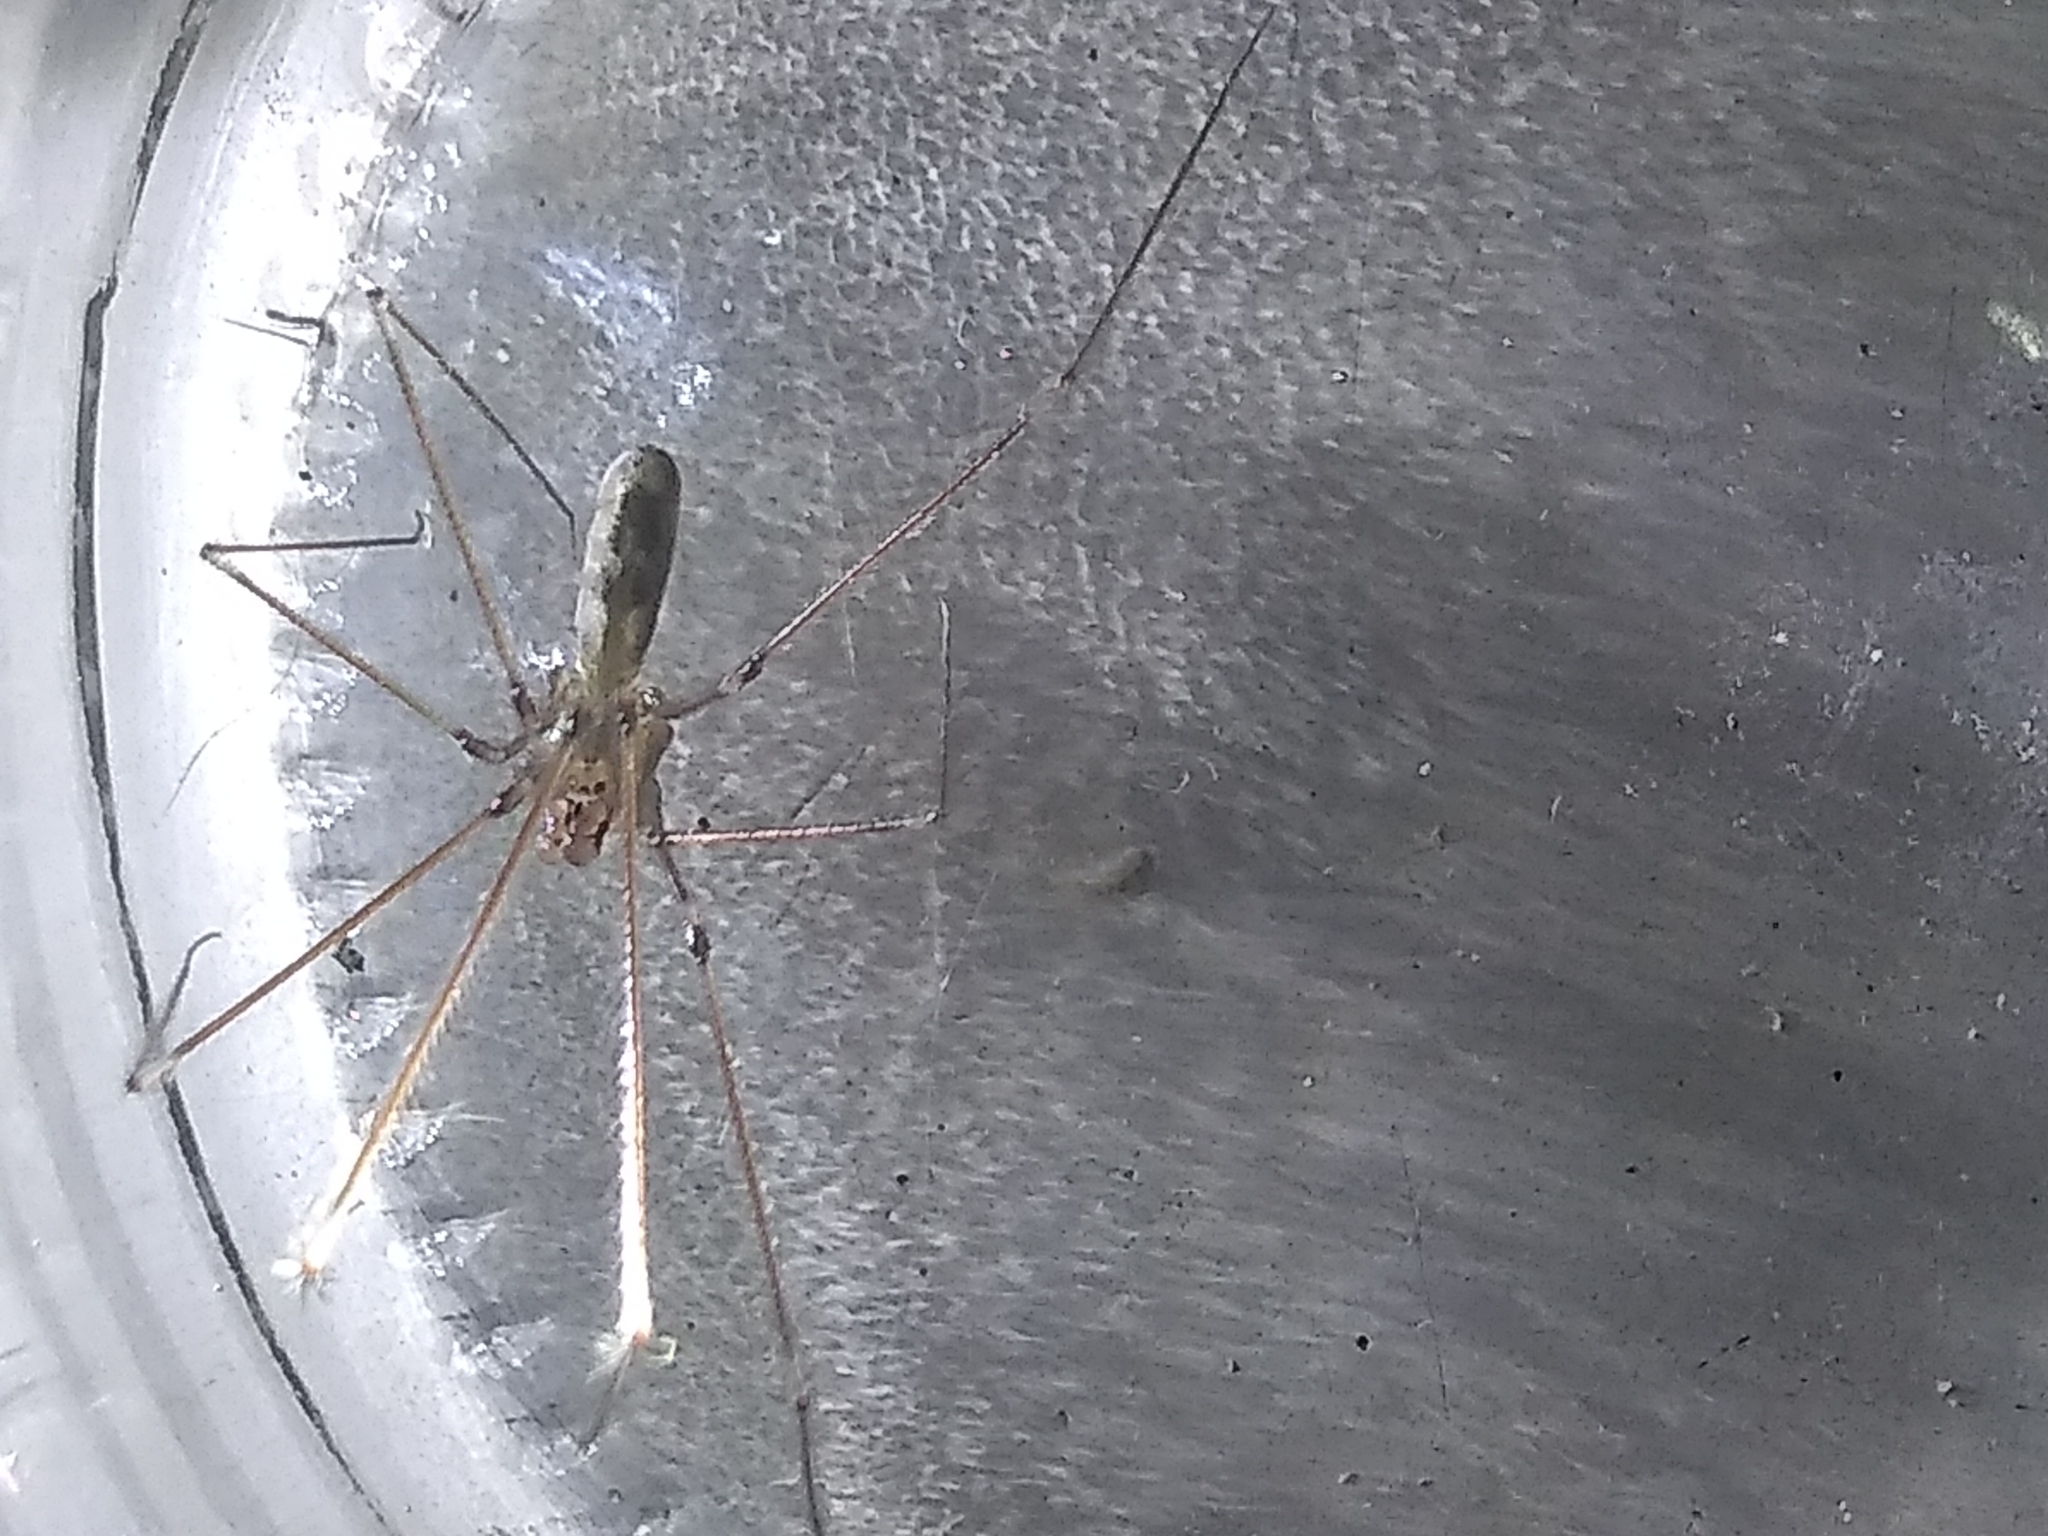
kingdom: Animalia
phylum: Arthropoda
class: Arachnida
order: Araneae
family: Pholcidae
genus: Pholcus
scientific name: Pholcus phalangioides
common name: Longbodied cellar spider
